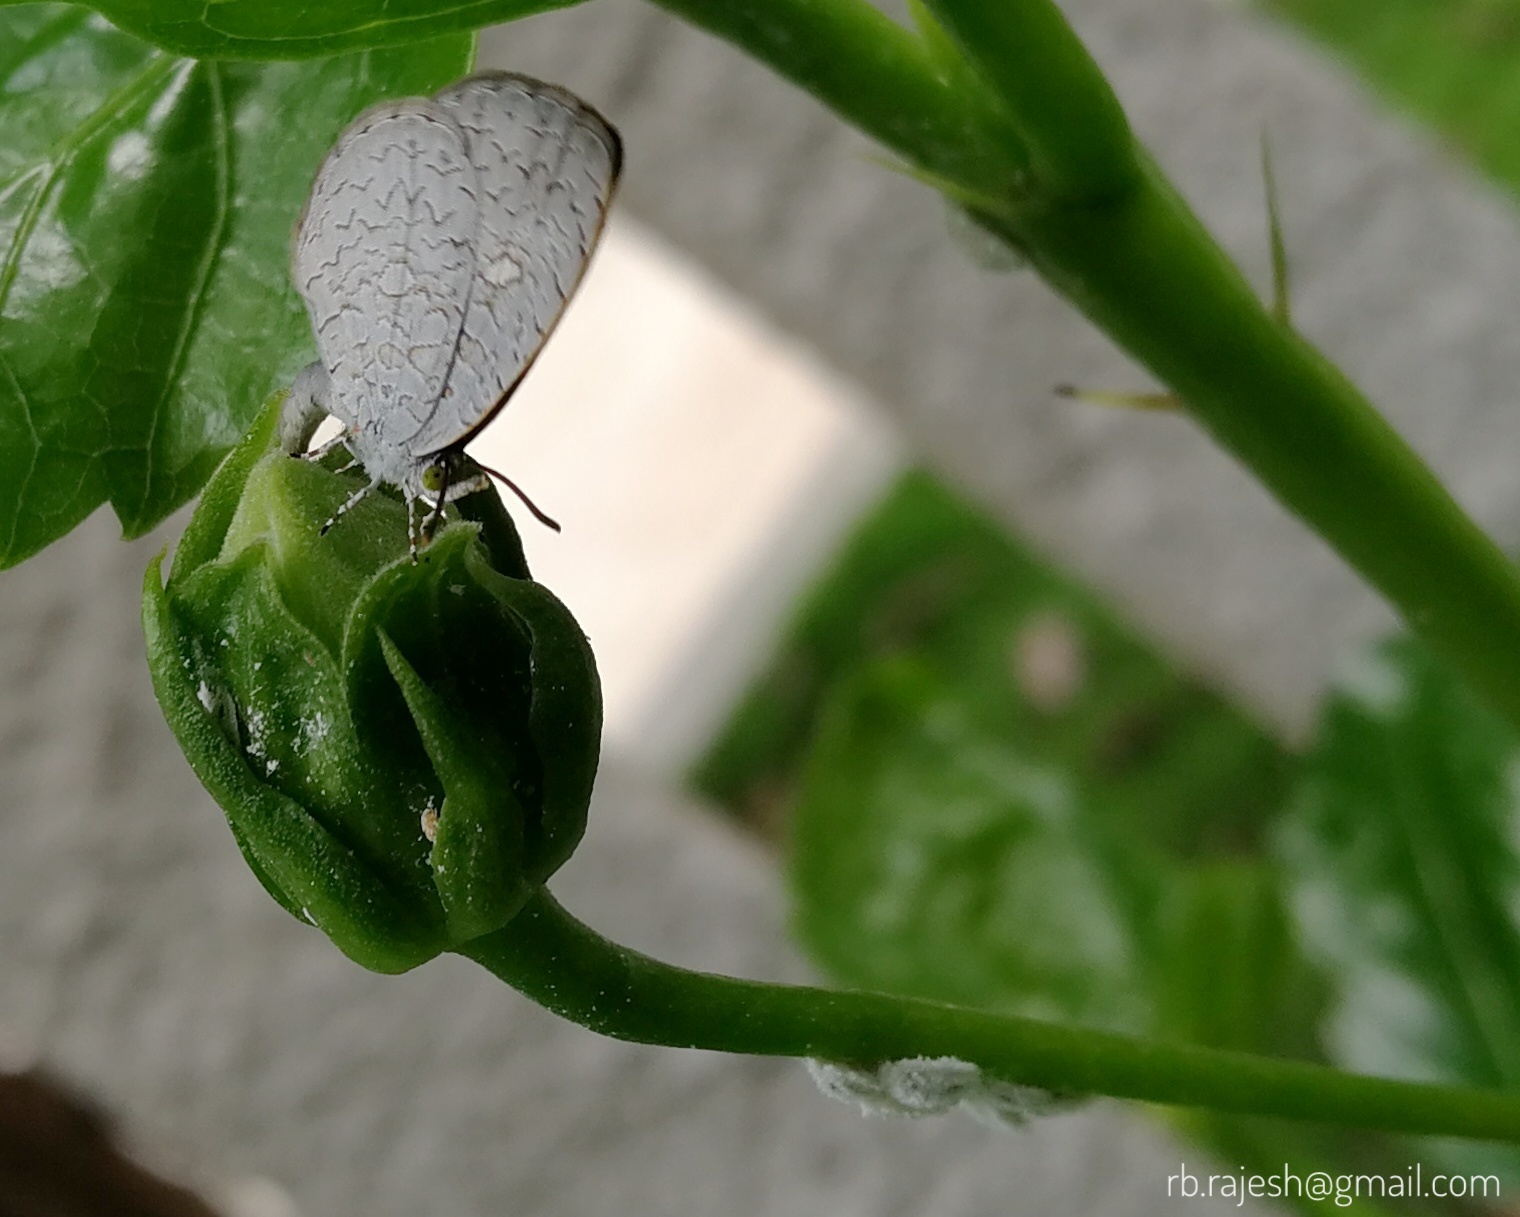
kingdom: Animalia
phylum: Arthropoda
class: Insecta
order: Lepidoptera
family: Lycaenidae
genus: Spalgis
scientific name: Spalgis epius
